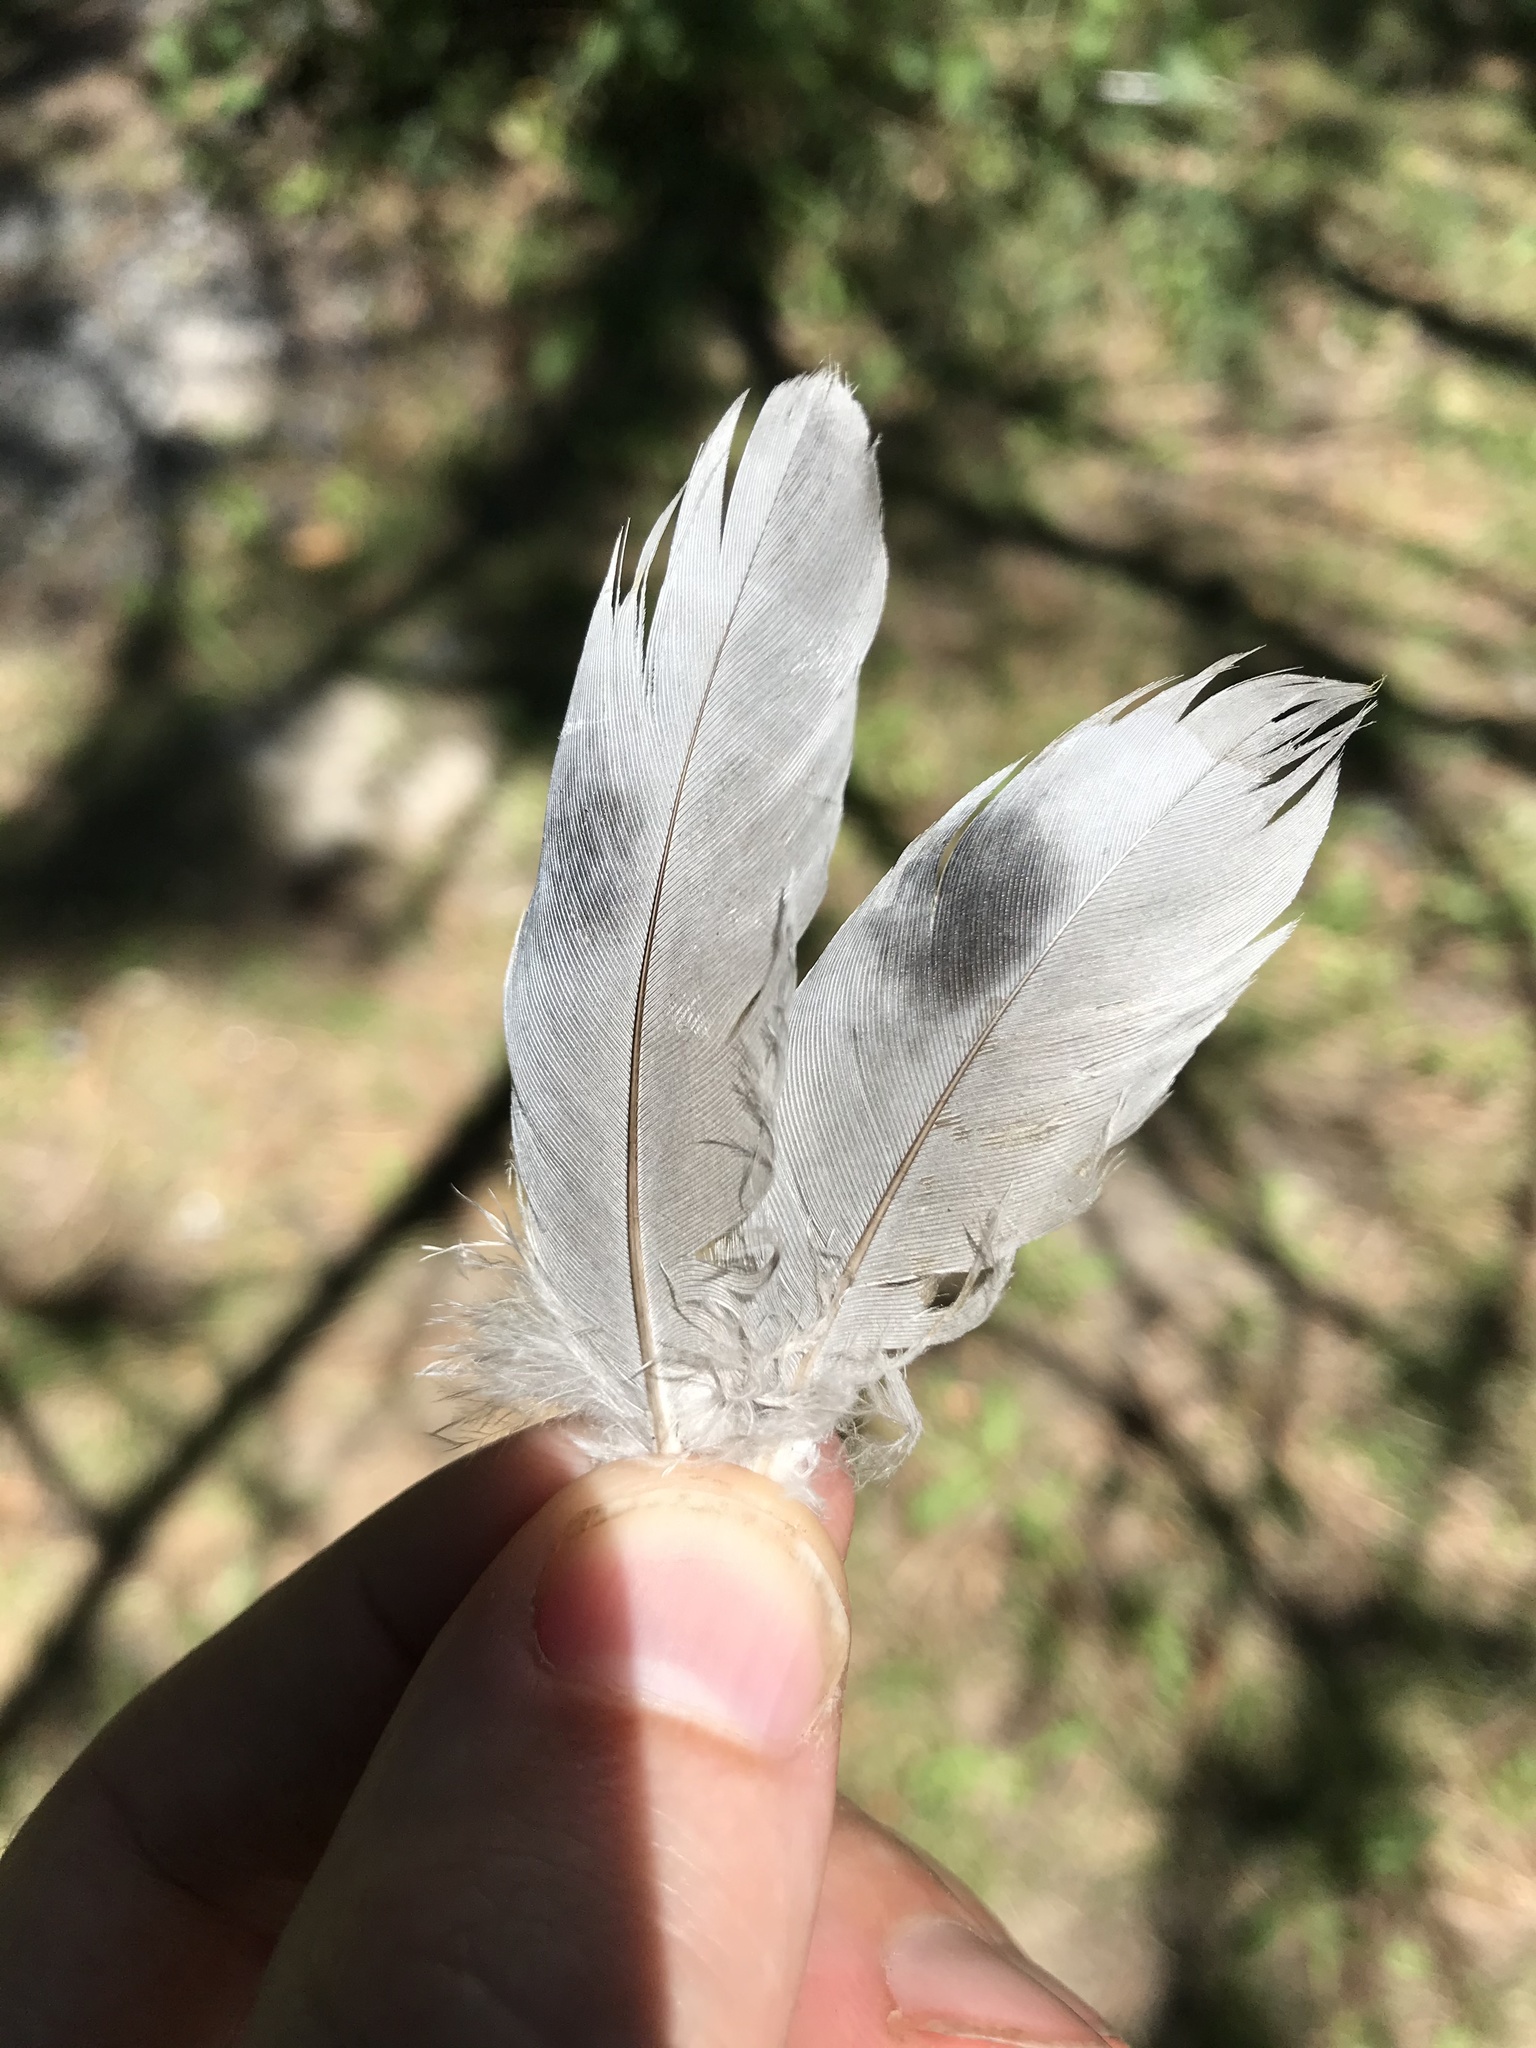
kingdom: Animalia
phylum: Chordata
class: Aves
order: Columbiformes
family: Columbidae
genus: Columba
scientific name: Columba livia
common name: Rock pigeon
